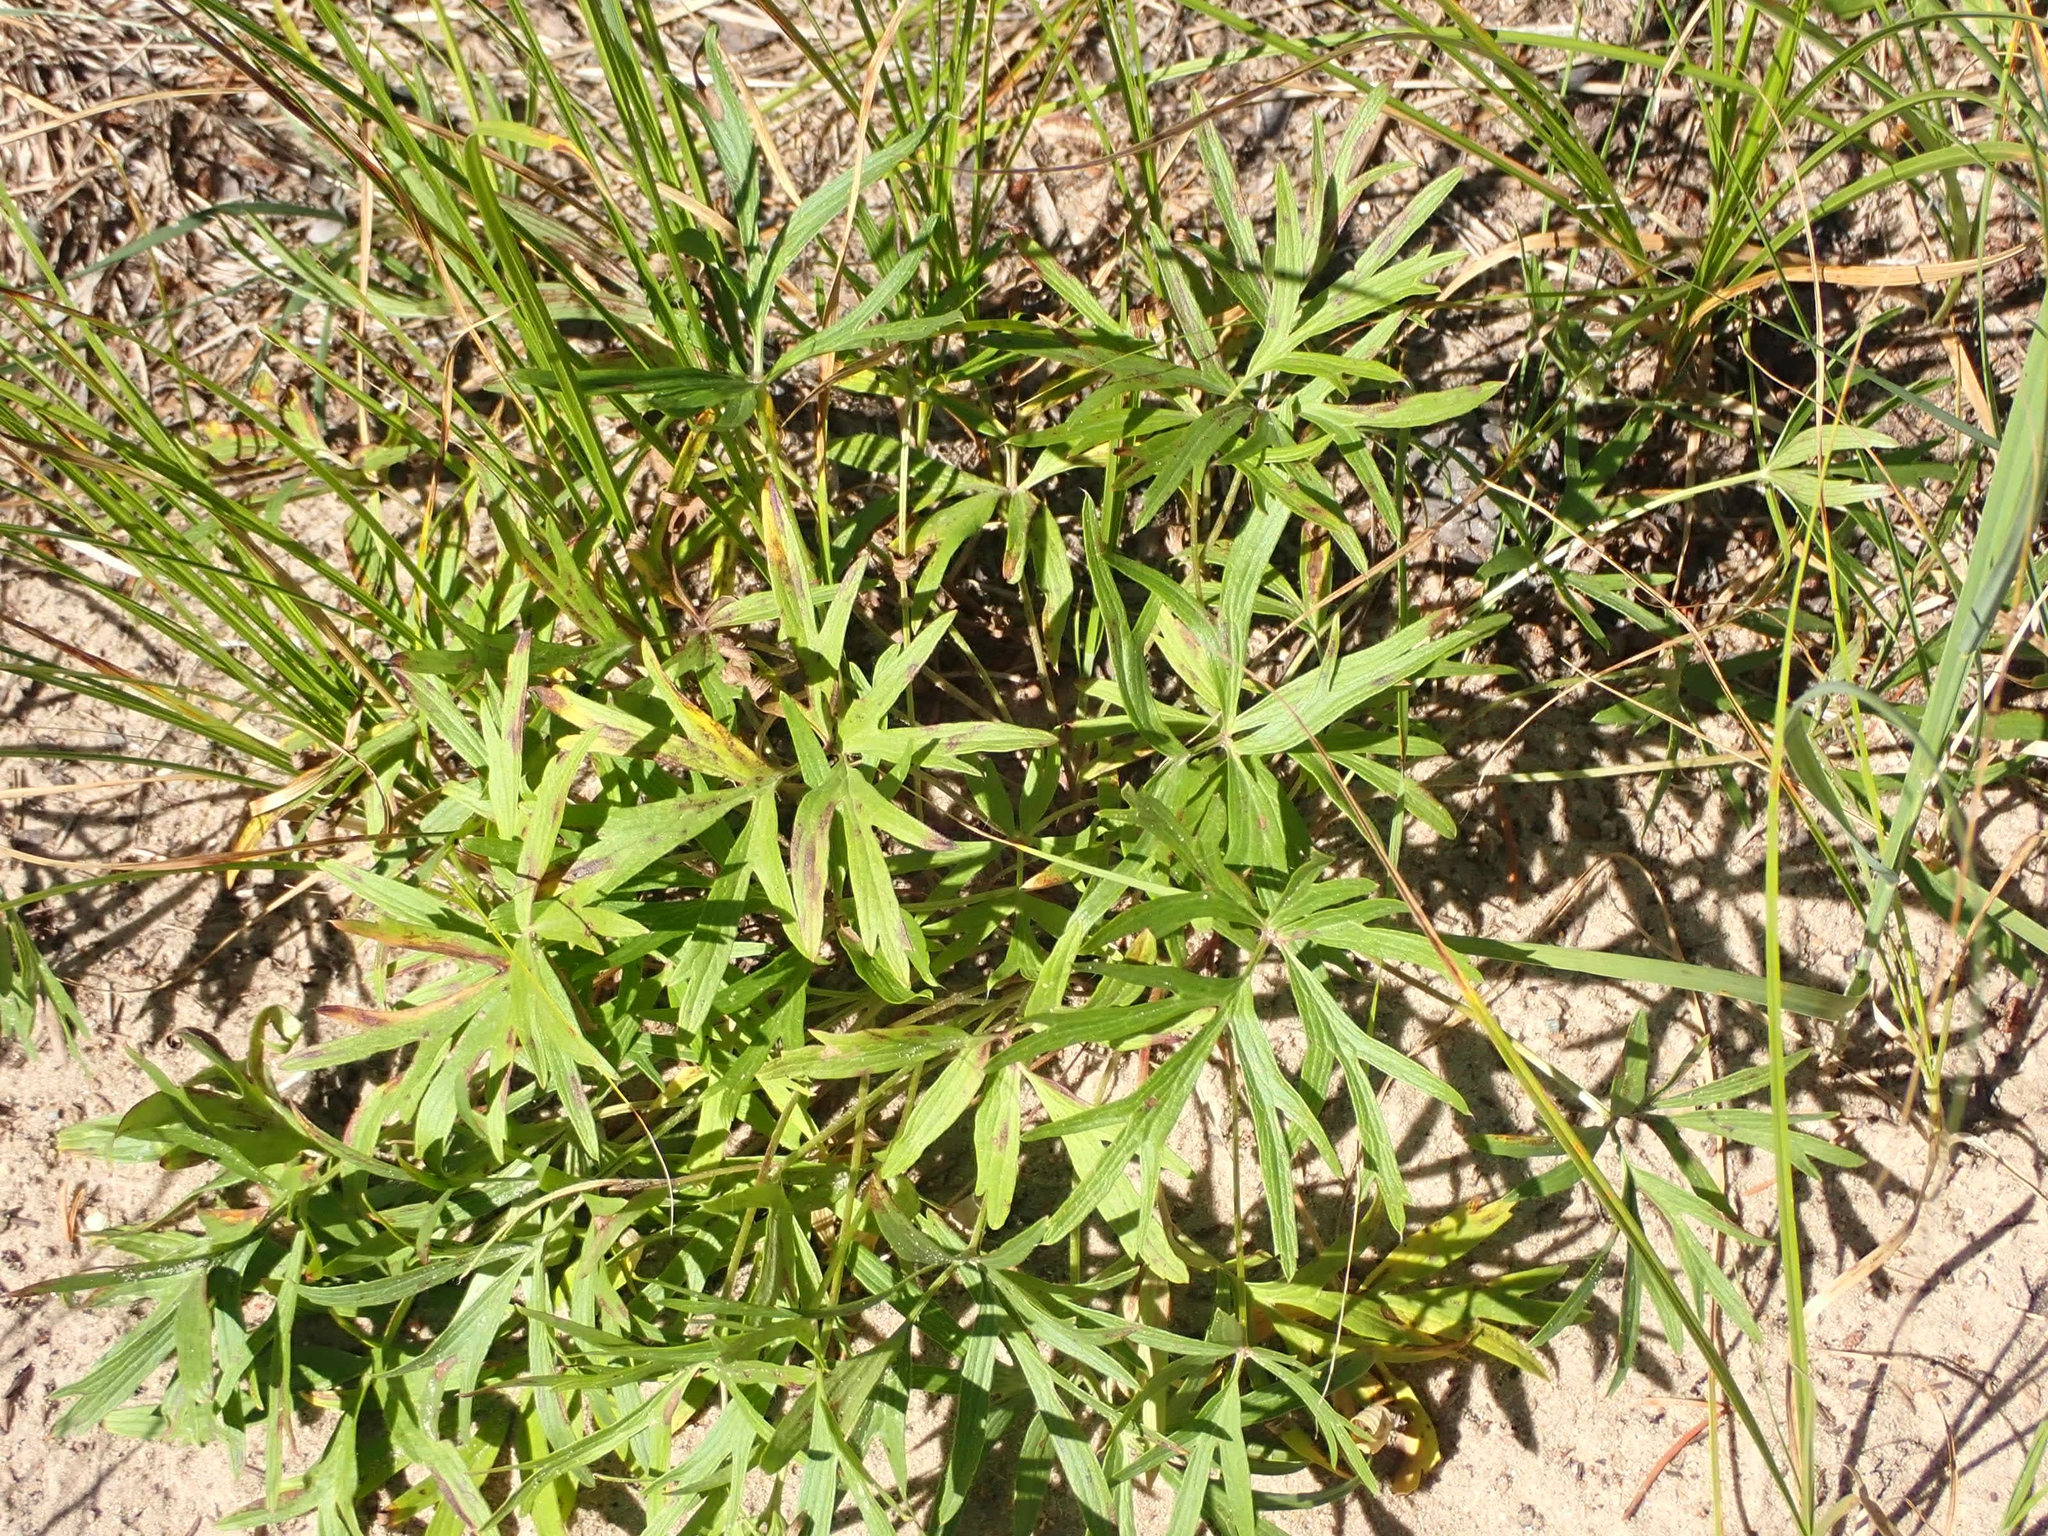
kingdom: Plantae
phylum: Tracheophyta
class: Magnoliopsida
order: Ranunculales
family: Ranunculaceae
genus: Pulsatilla
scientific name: Pulsatilla nuttalliana
